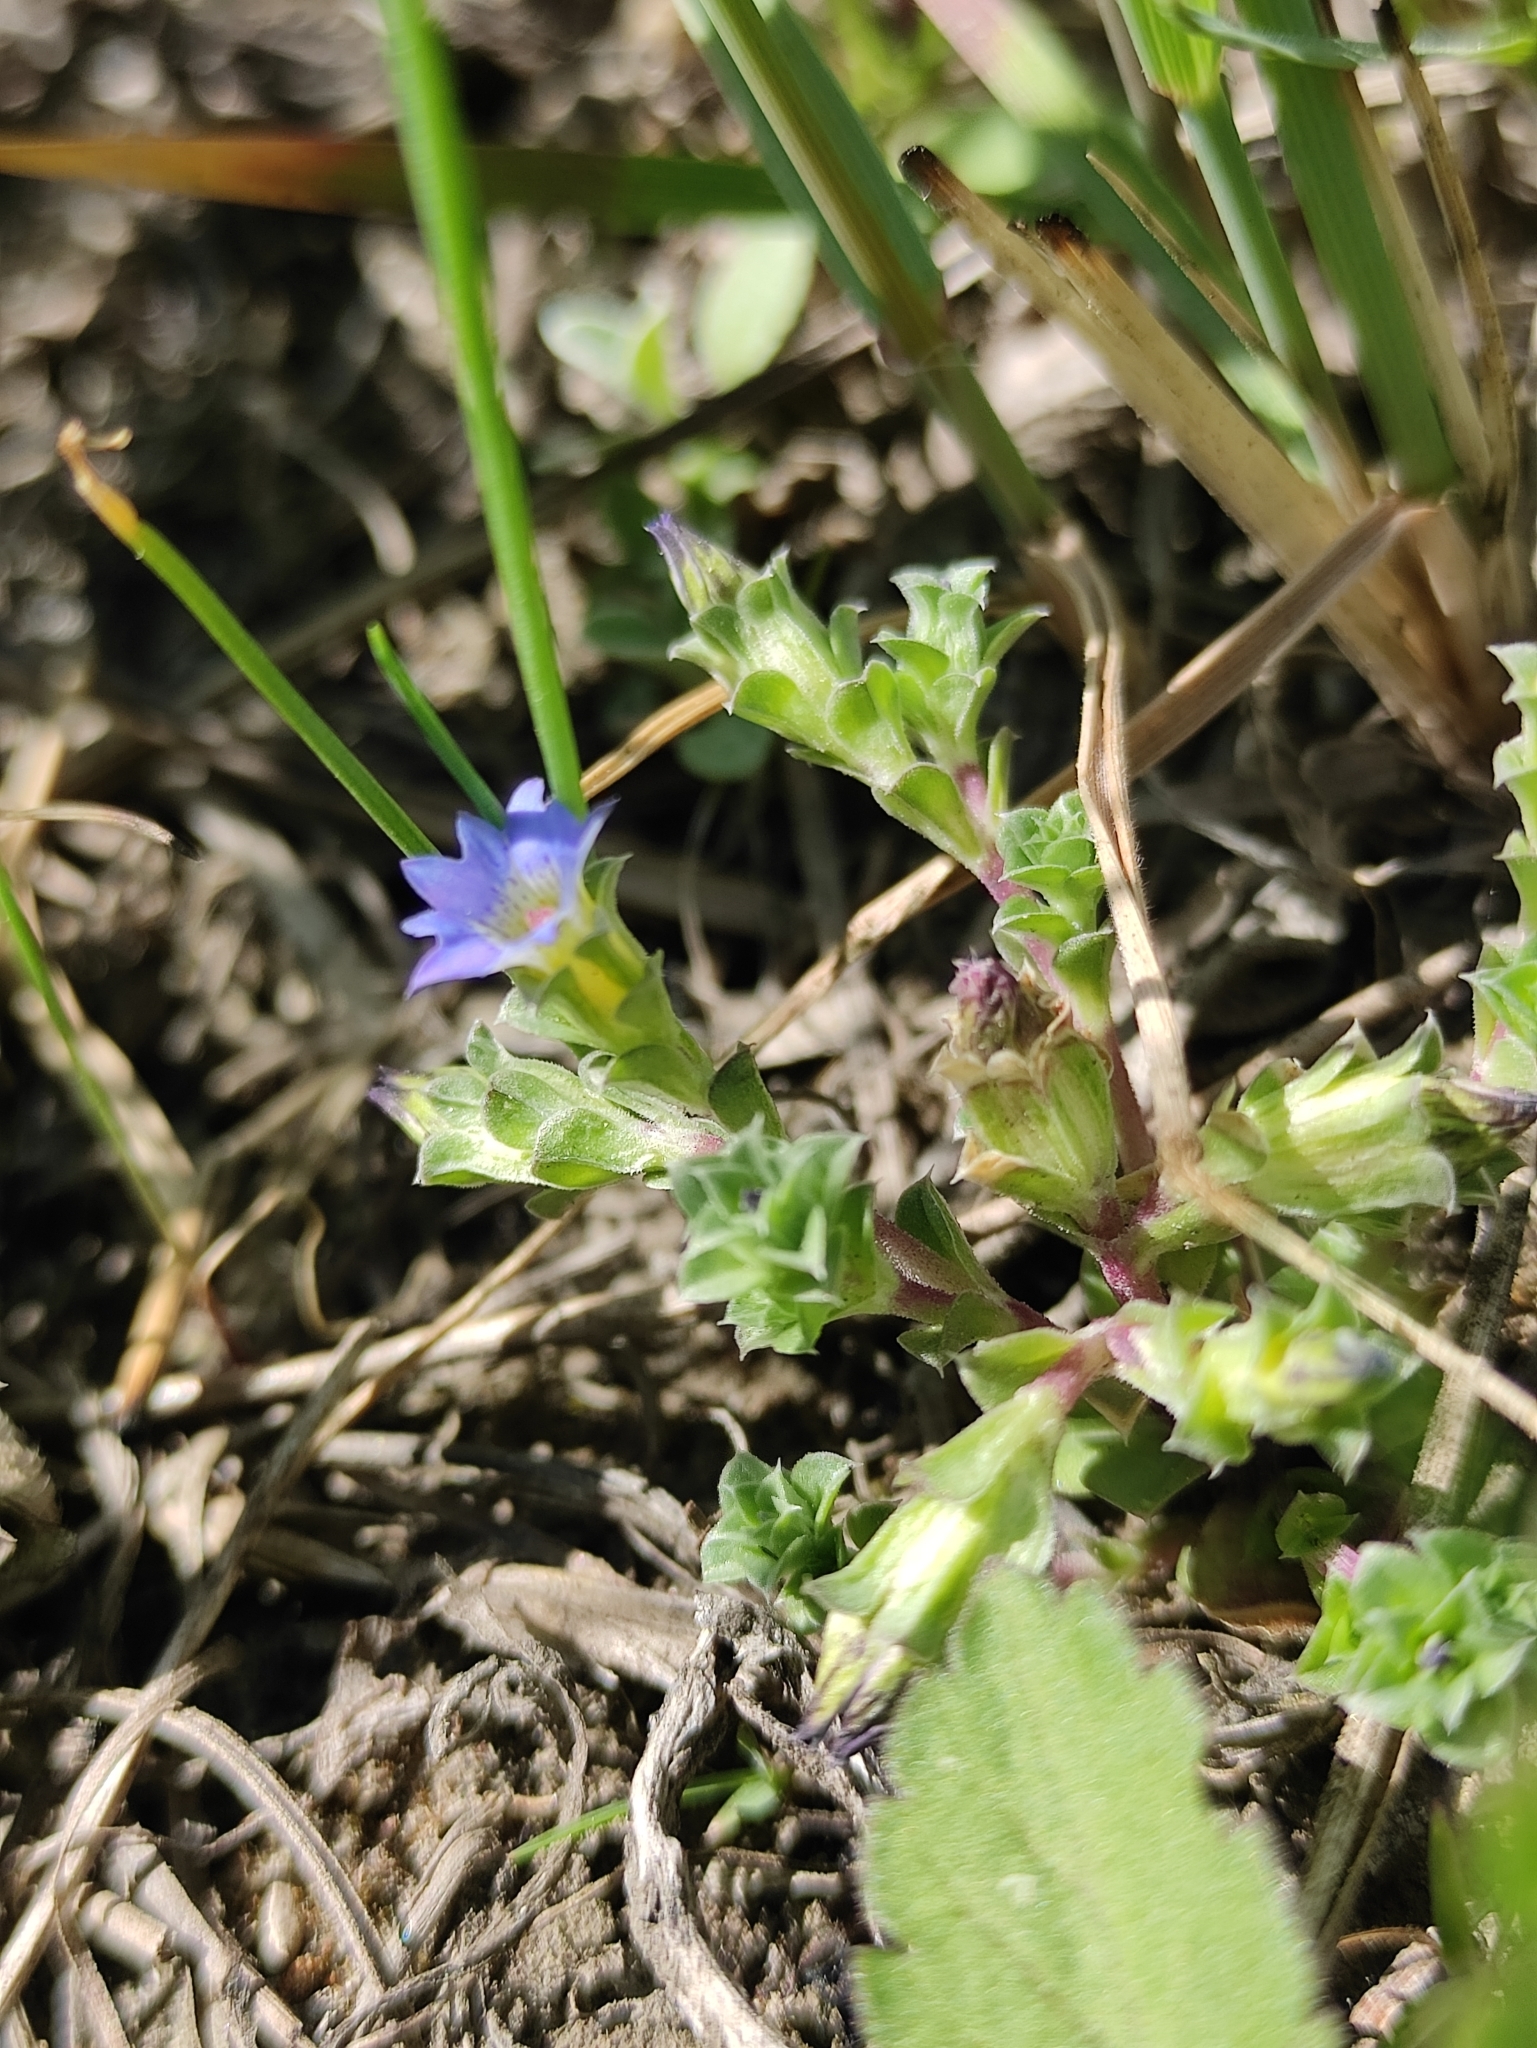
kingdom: Plantae
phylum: Tracheophyta
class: Magnoliopsida
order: Gentianales
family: Gentianaceae
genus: Gentiana
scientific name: Gentiana squarrosa
